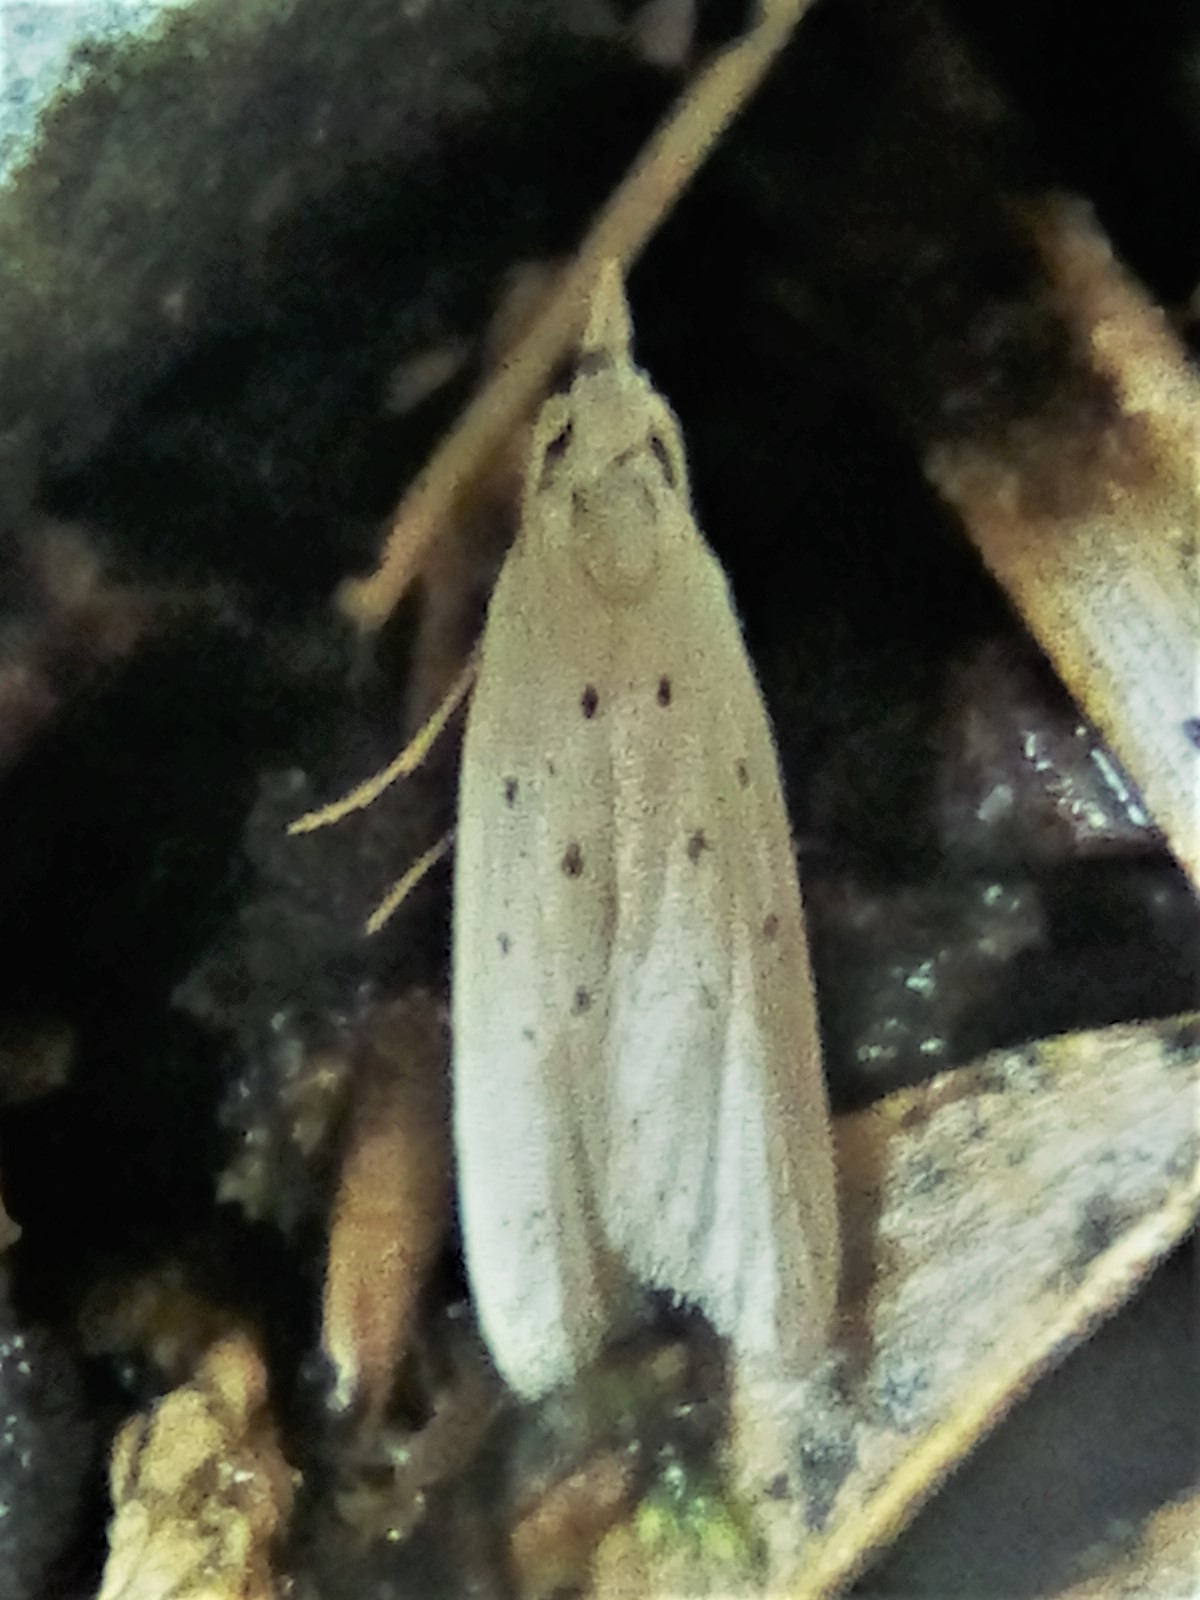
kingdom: Animalia
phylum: Arthropoda
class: Insecta
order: Lepidoptera
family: Carposinidae
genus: Paramorpha
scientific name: Paramorpha
